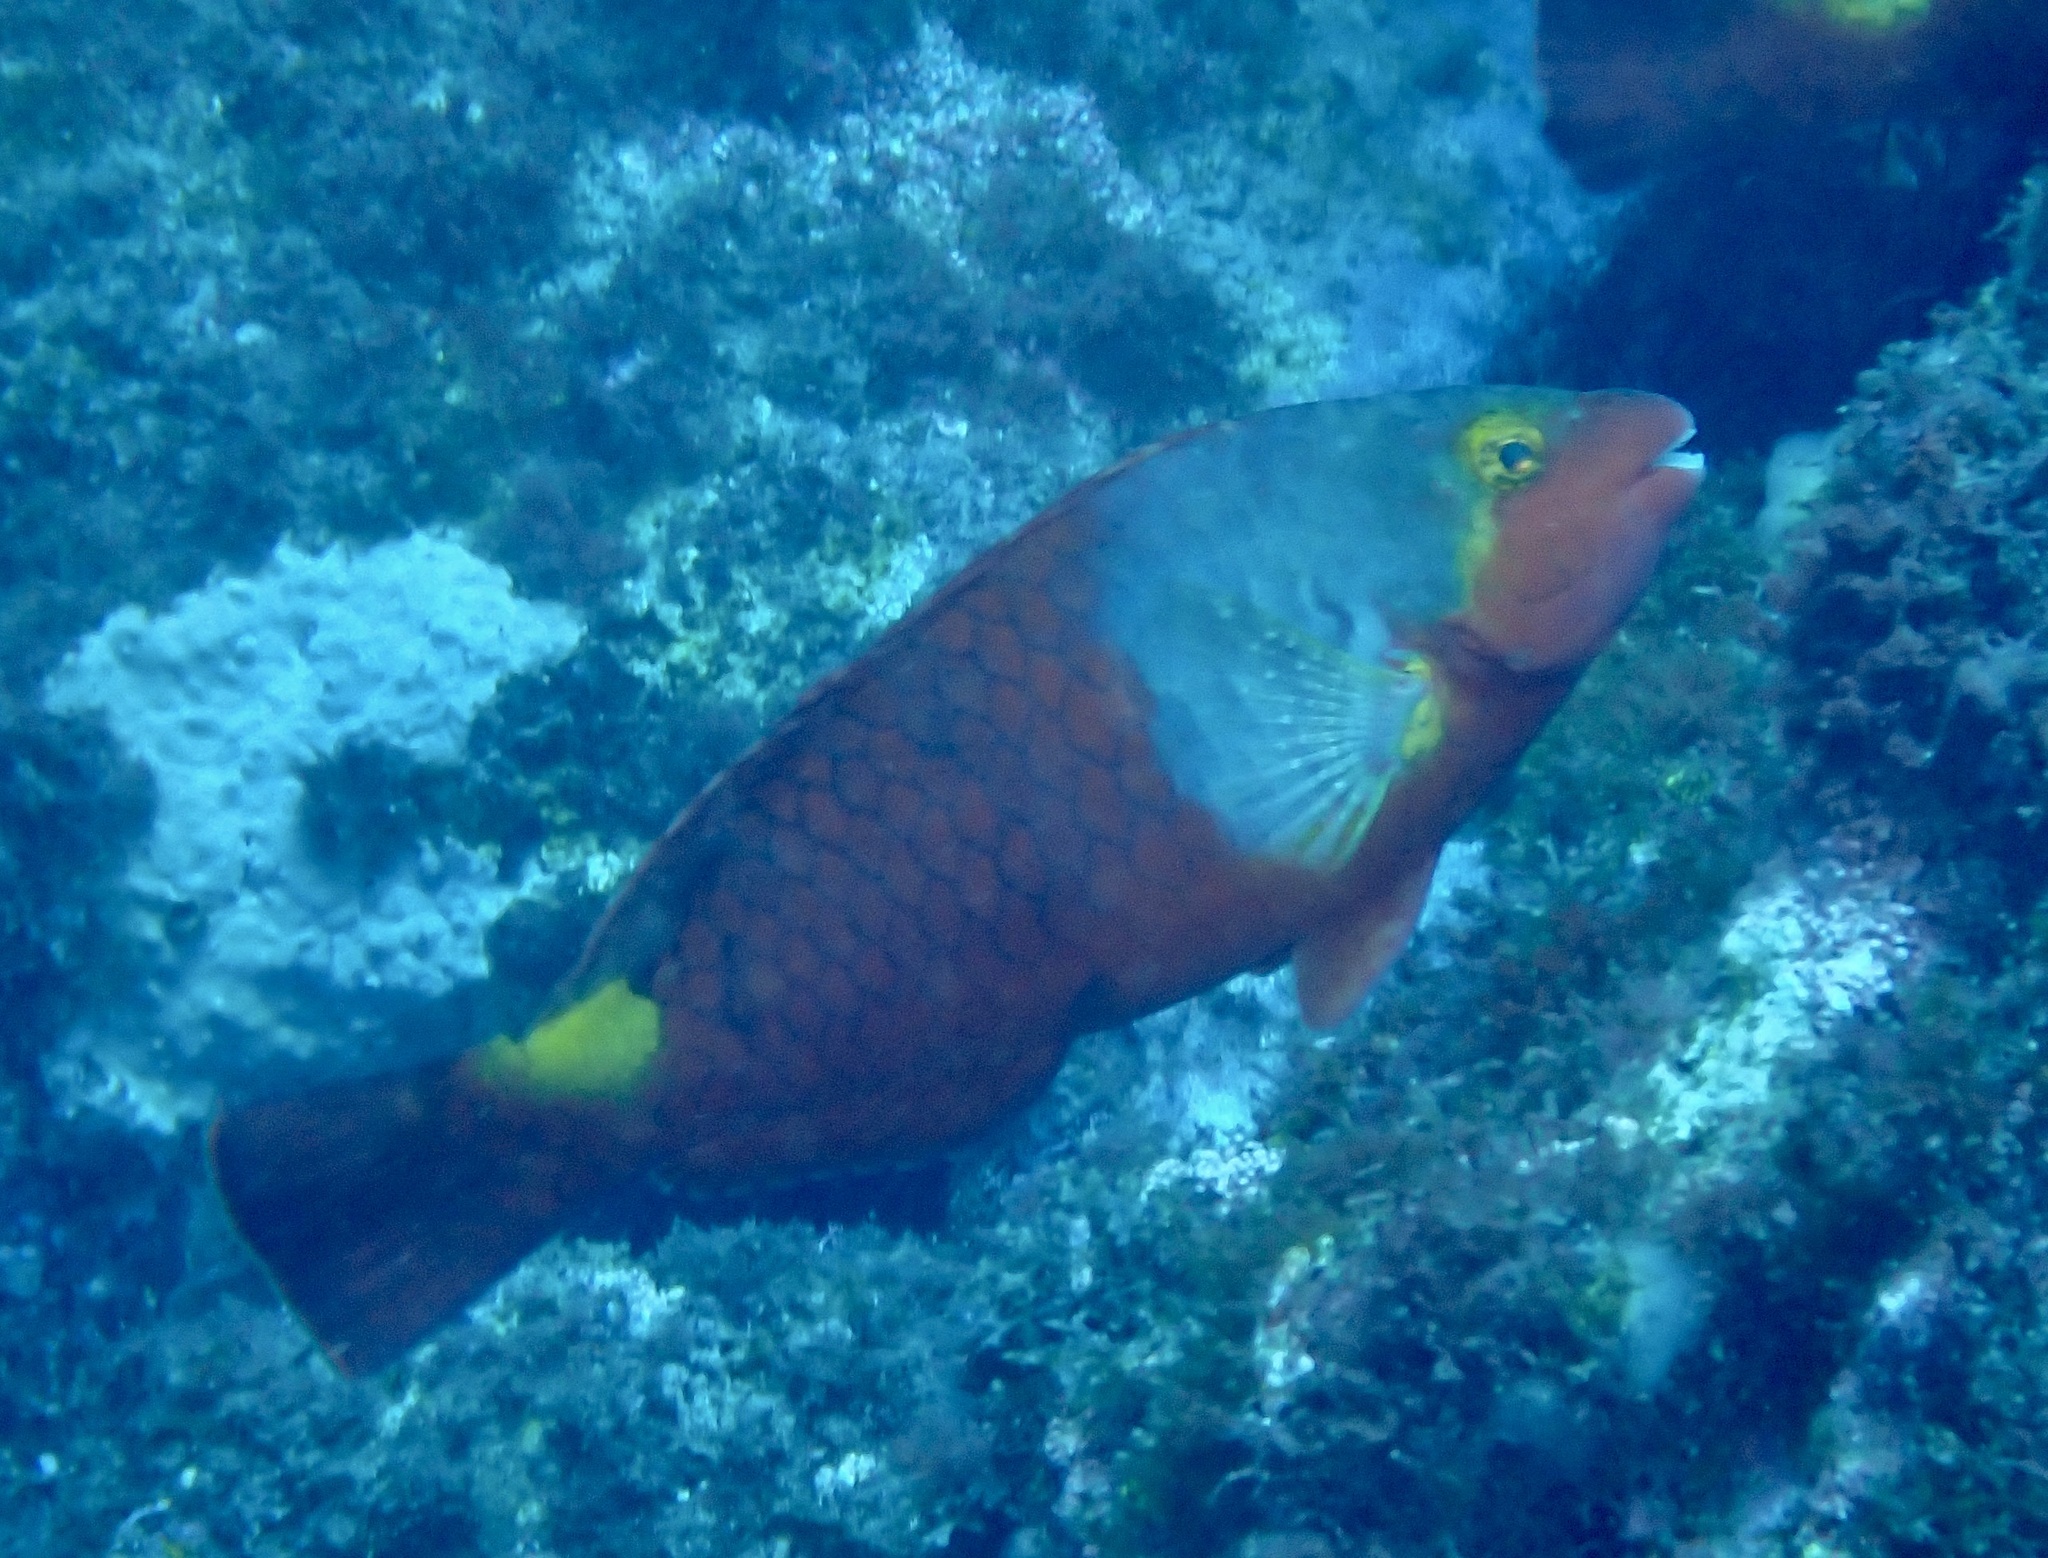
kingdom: Animalia
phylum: Chordata
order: Perciformes
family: Scaridae
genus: Sparisoma
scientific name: Sparisoma cretense
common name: Parrotfish
